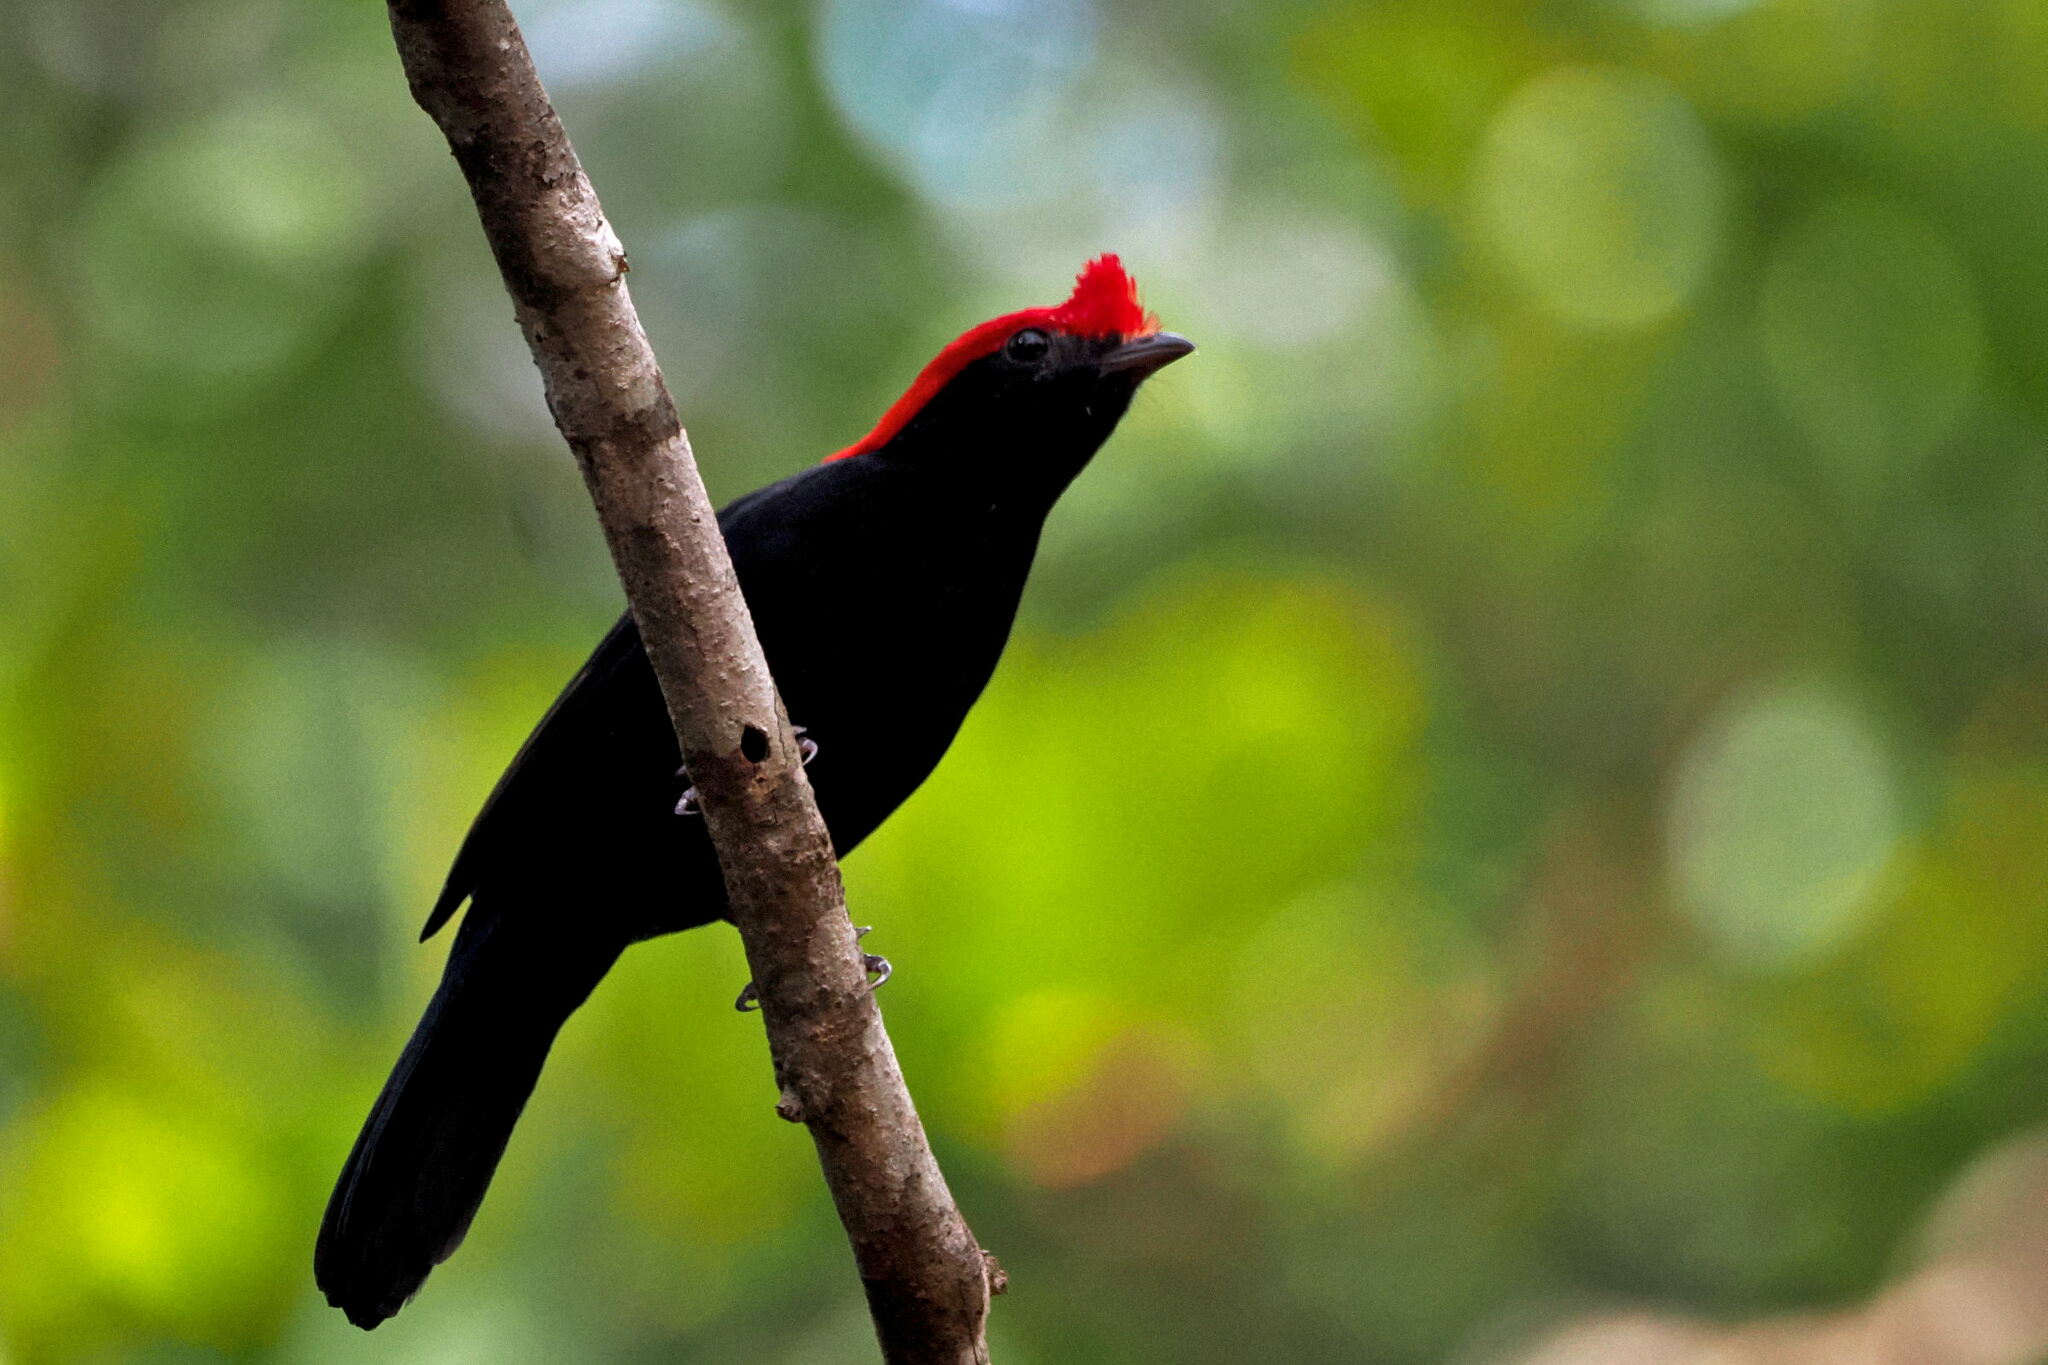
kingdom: Animalia
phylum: Chordata
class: Aves
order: Passeriformes
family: Pipridae
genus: Antilophia
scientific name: Antilophia galeata
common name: Helmeted manakin
